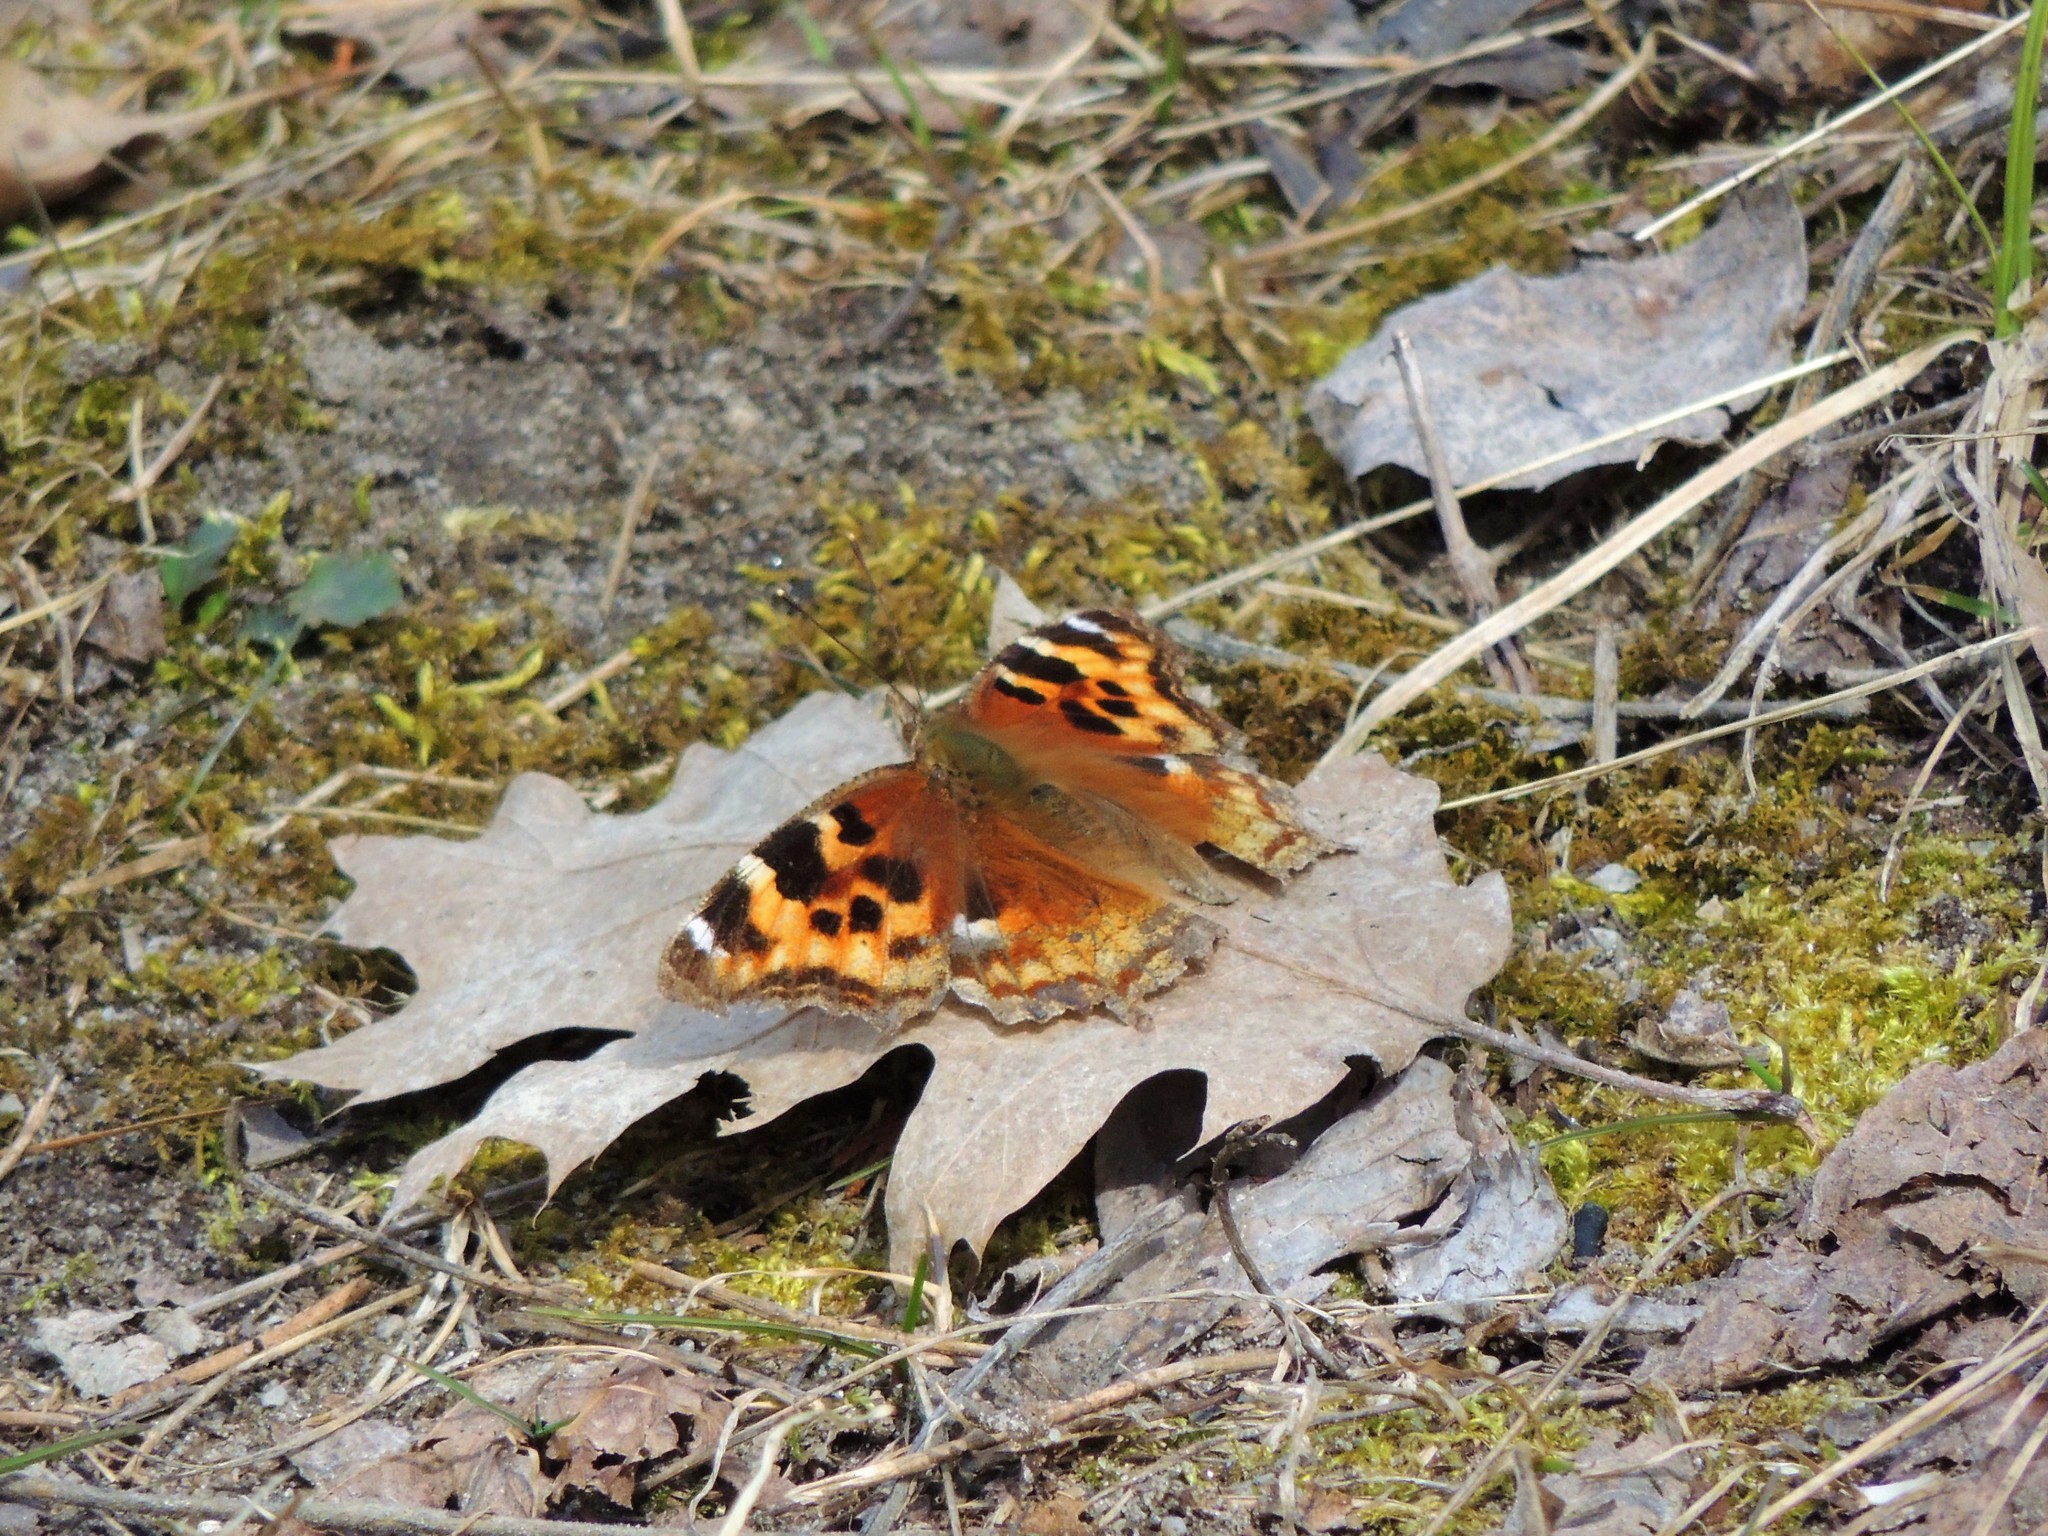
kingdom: Animalia
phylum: Arthropoda
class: Insecta
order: Lepidoptera
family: Nymphalidae
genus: Polygonia
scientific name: Polygonia vaualbum
